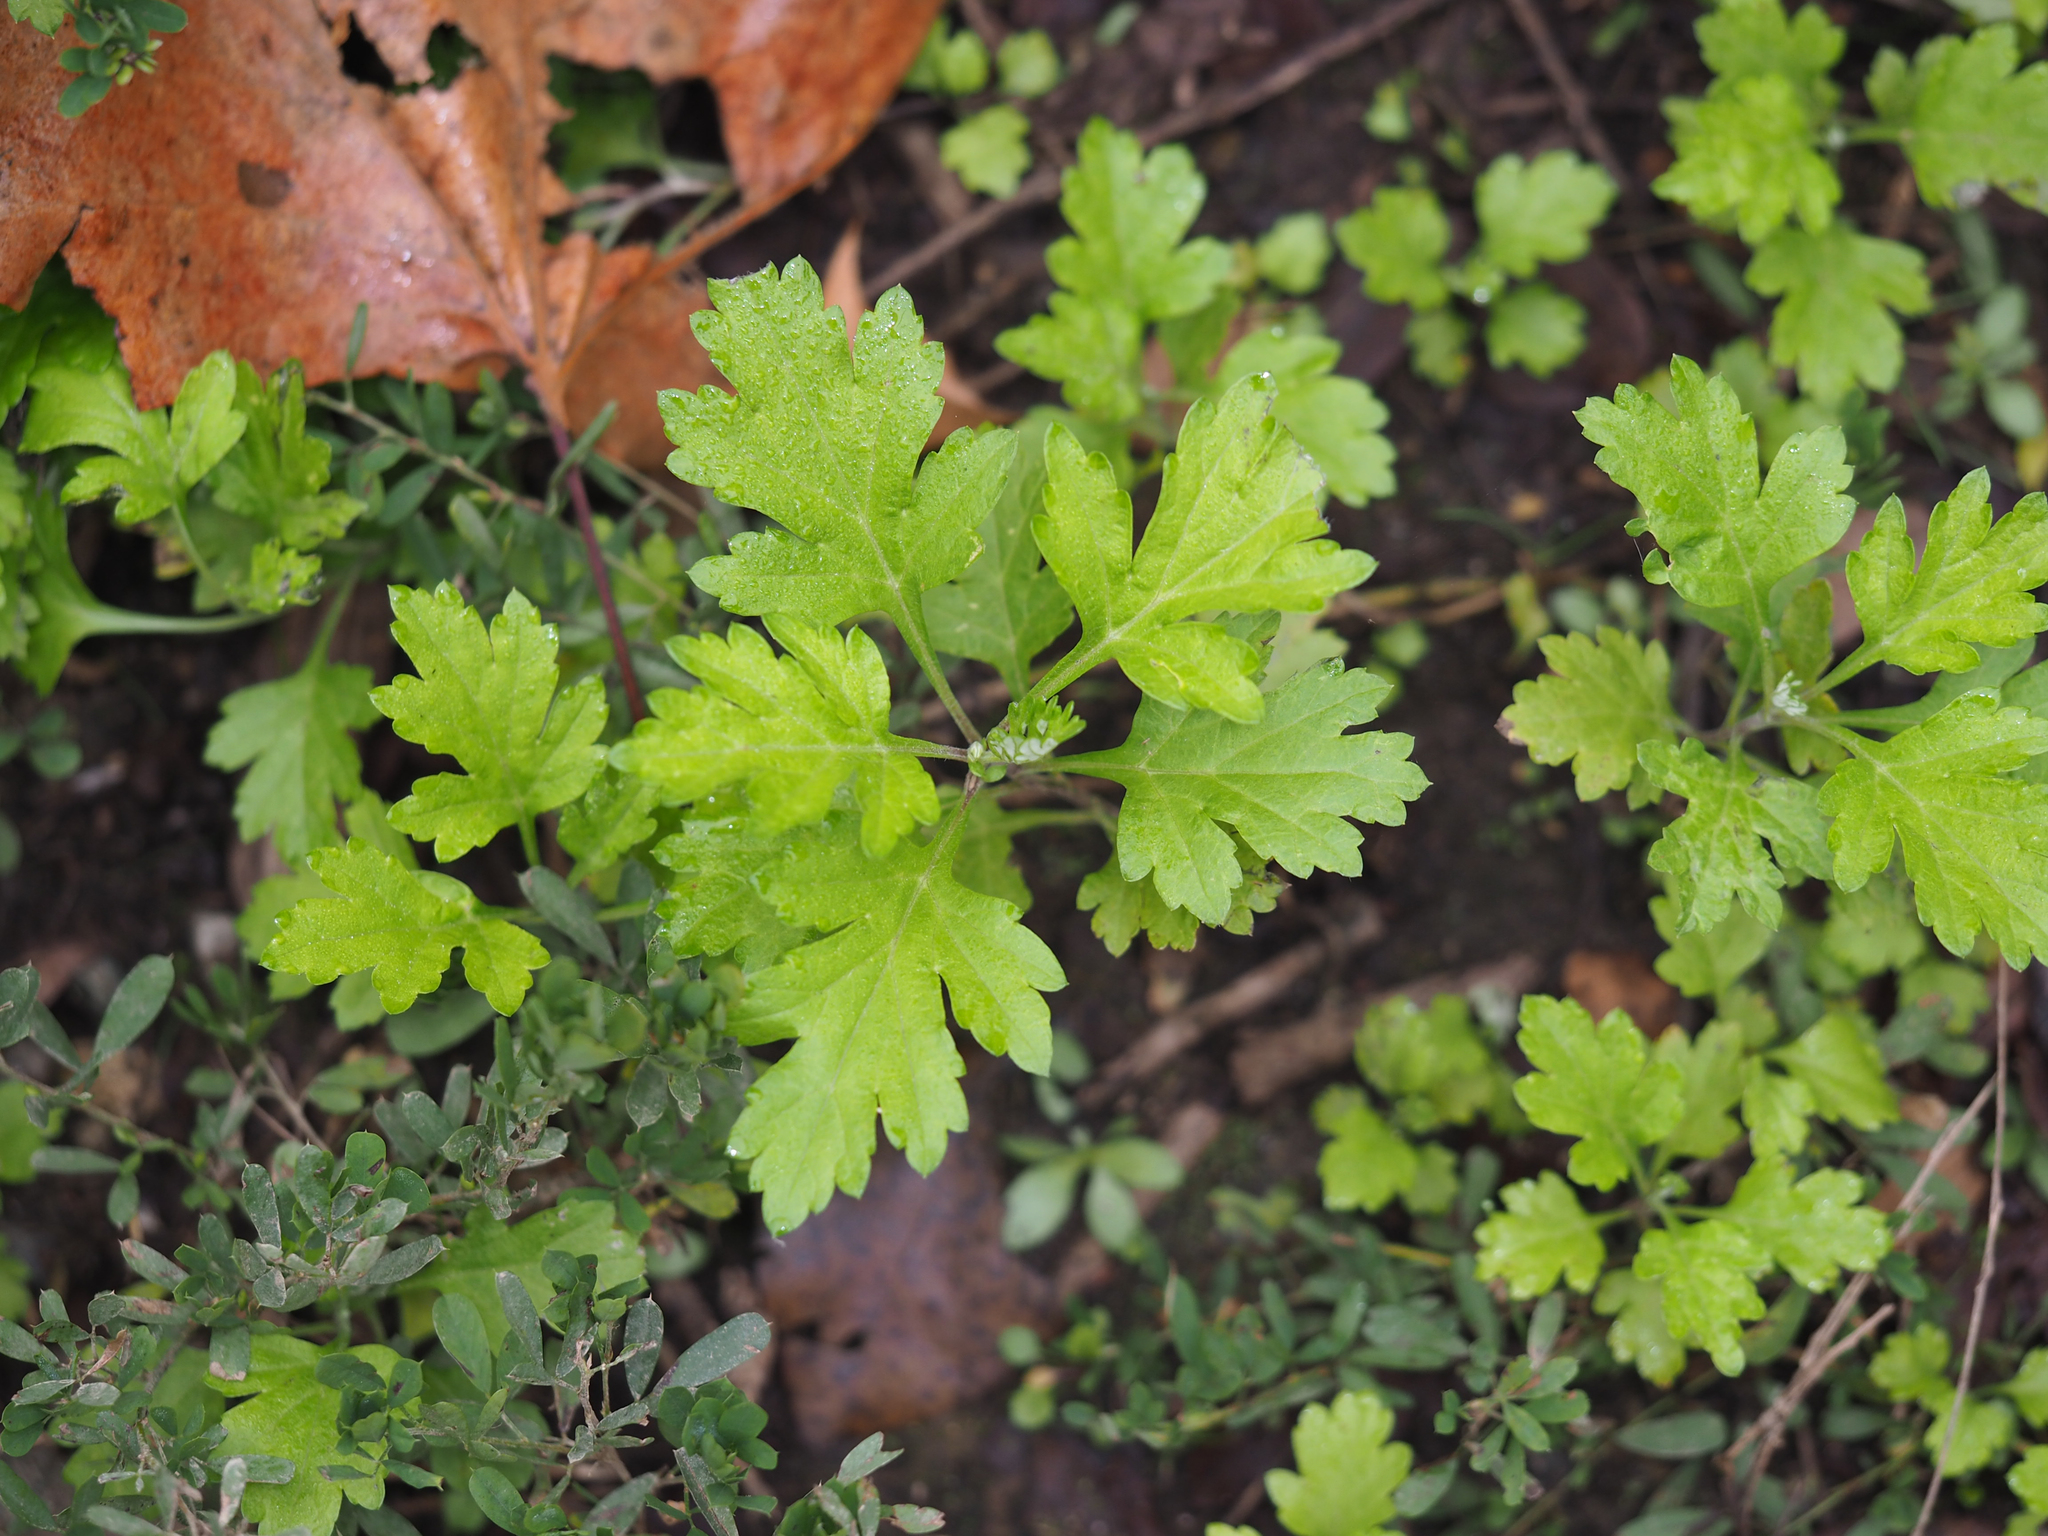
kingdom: Plantae
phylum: Tracheophyta
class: Magnoliopsida
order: Asterales
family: Asteraceae
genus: Artemisia
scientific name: Artemisia vulgaris
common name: Mugwort
